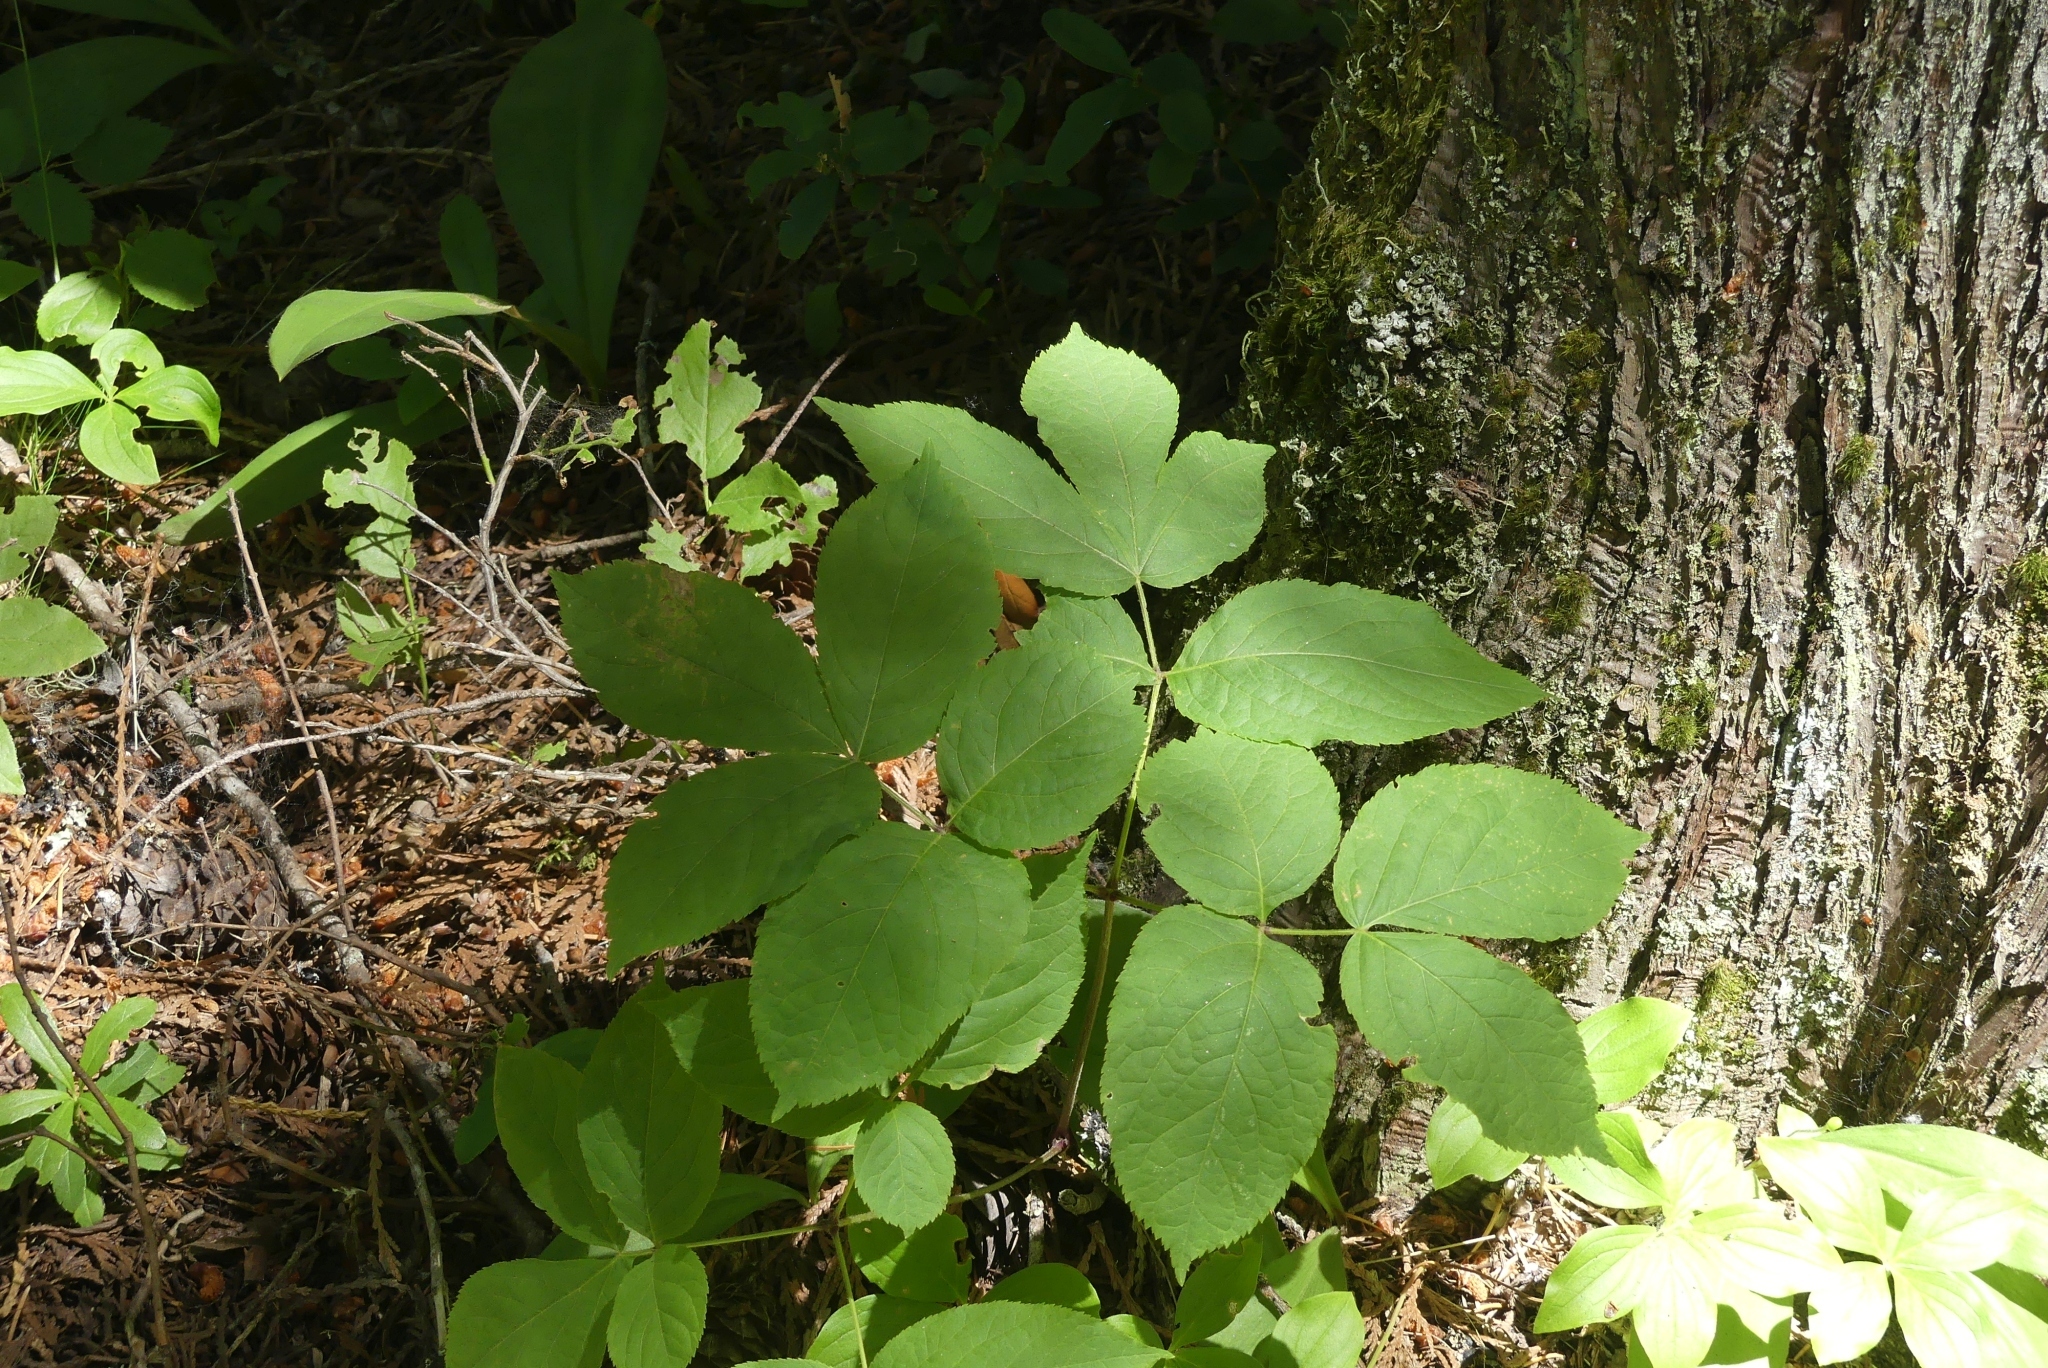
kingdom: Plantae
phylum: Tracheophyta
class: Magnoliopsida
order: Apiales
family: Araliaceae
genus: Aralia
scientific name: Aralia nudicaulis
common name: Wild sarsaparilla
